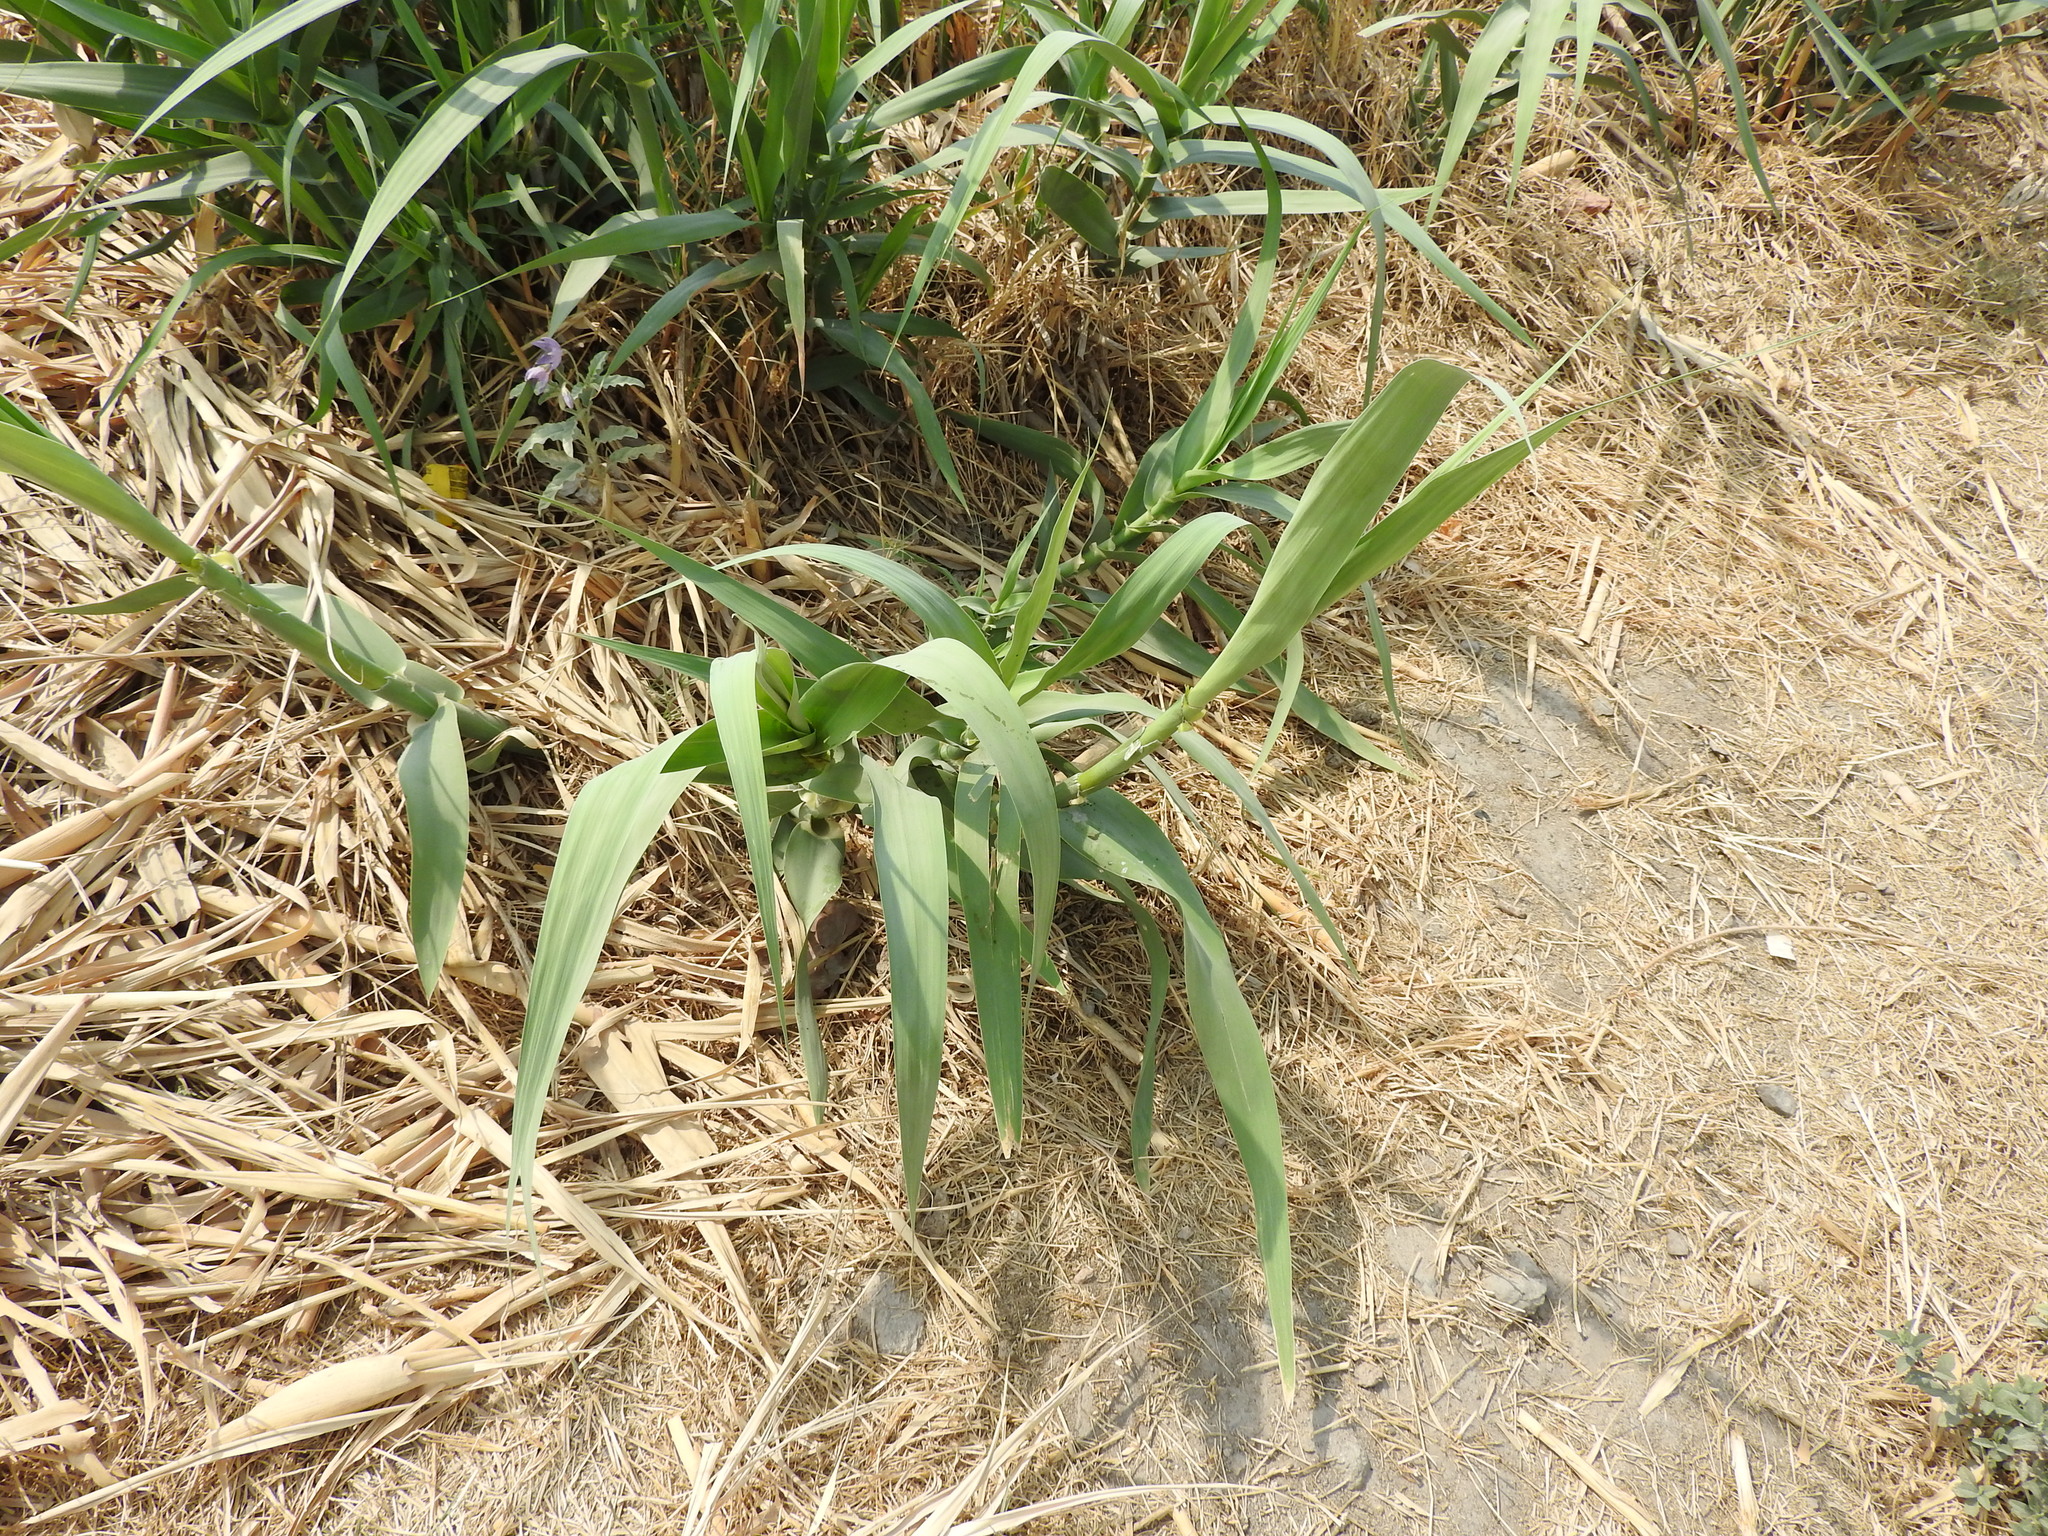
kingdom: Plantae
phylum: Tracheophyta
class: Liliopsida
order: Poales
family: Poaceae
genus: Arundo
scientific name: Arundo donax
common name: Giant reed
